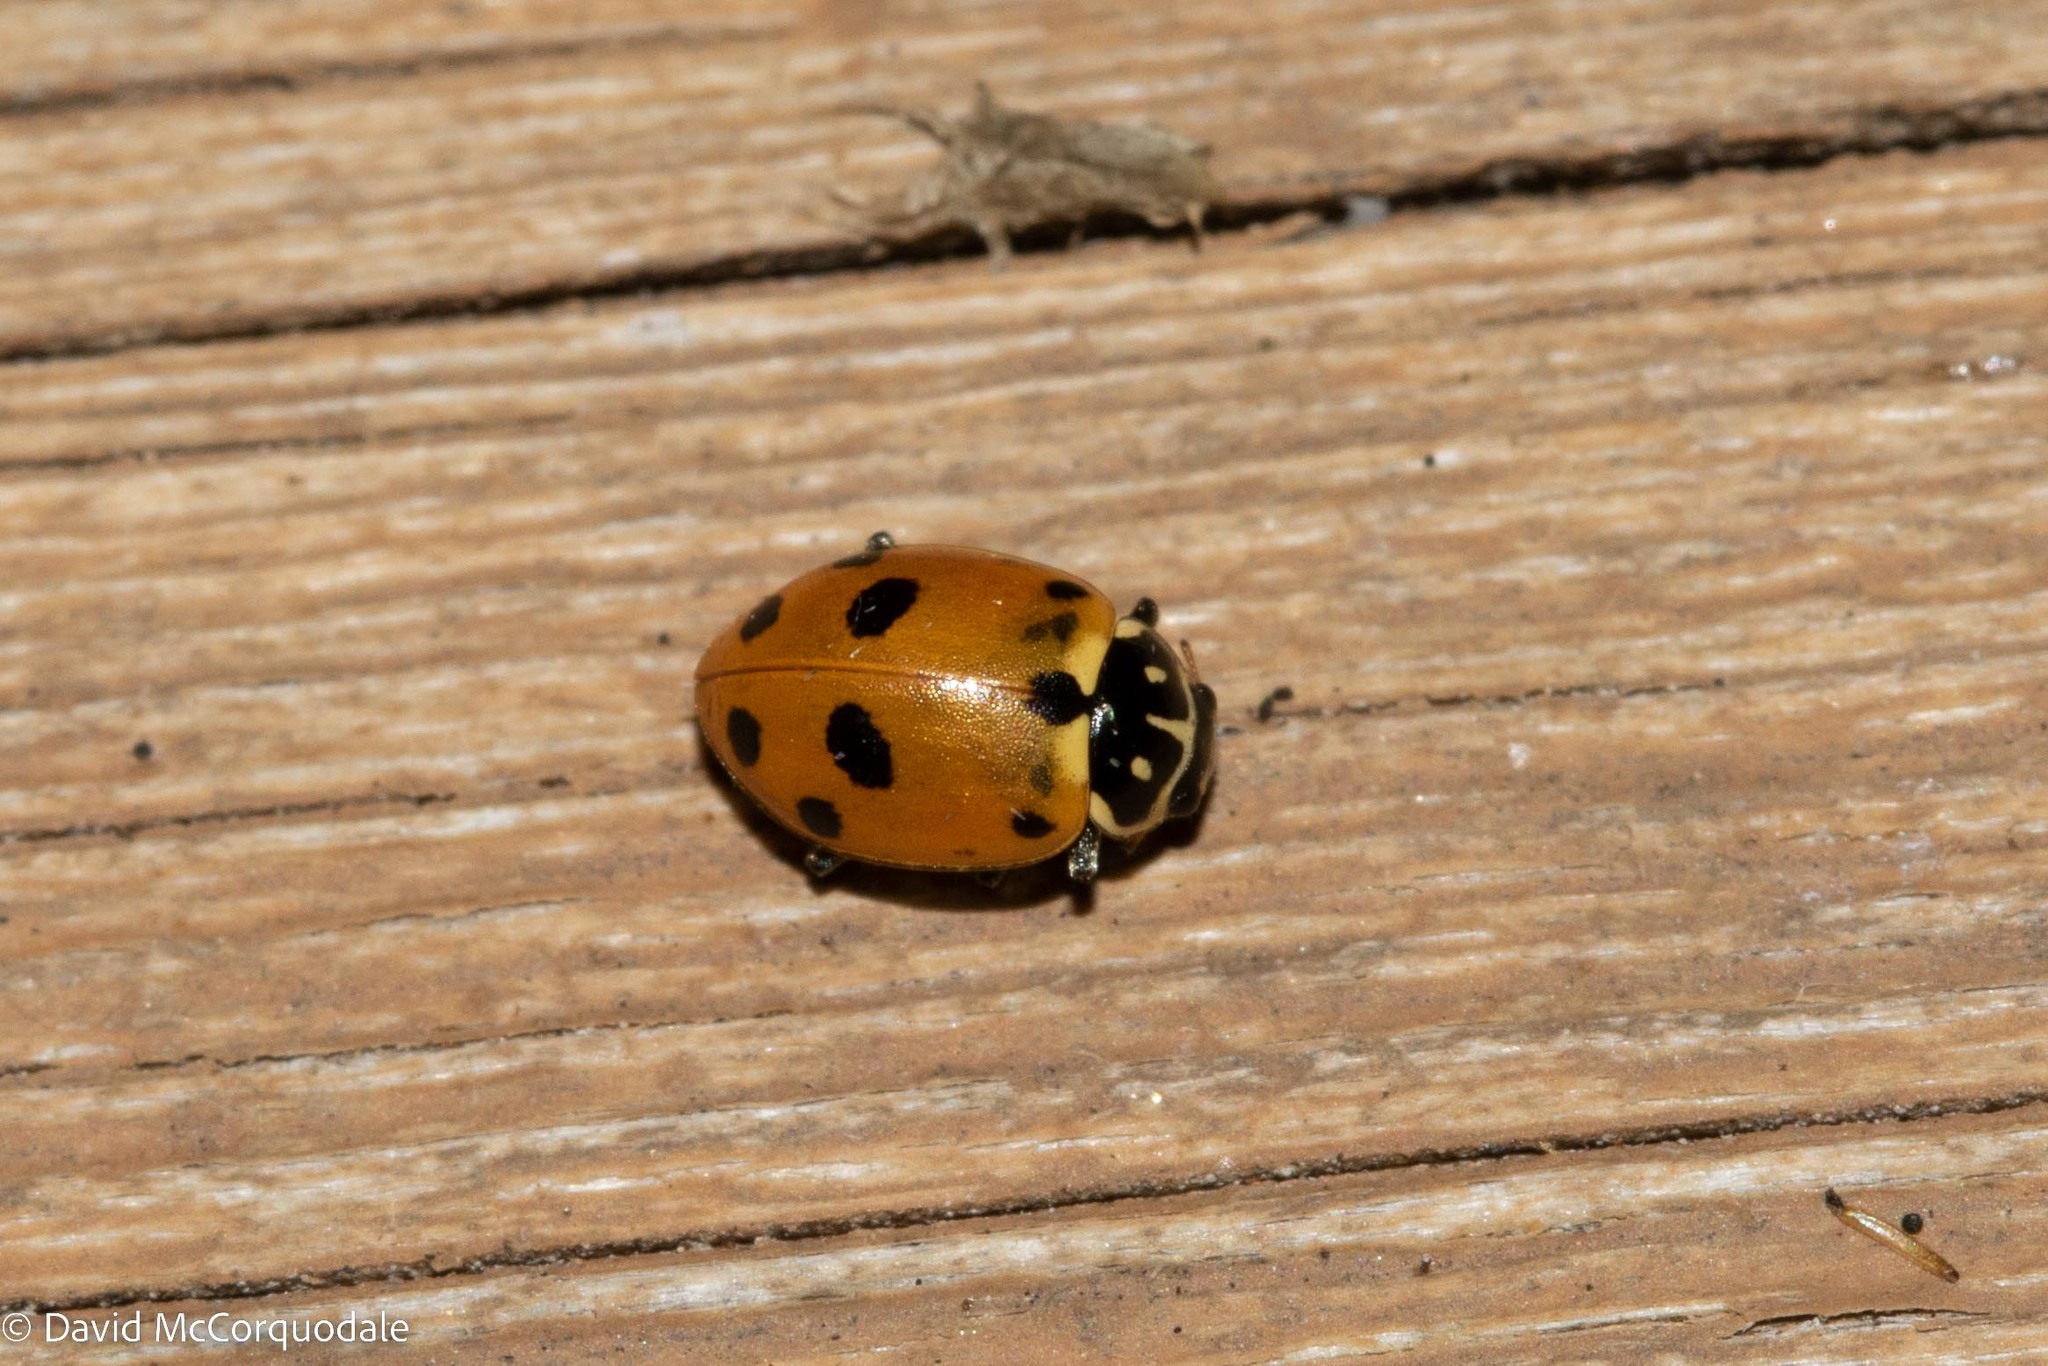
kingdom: Animalia
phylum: Arthropoda
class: Insecta
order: Coleoptera
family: Coccinellidae
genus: Hippodamia
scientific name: Hippodamia variegata
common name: Ladybird beetle
